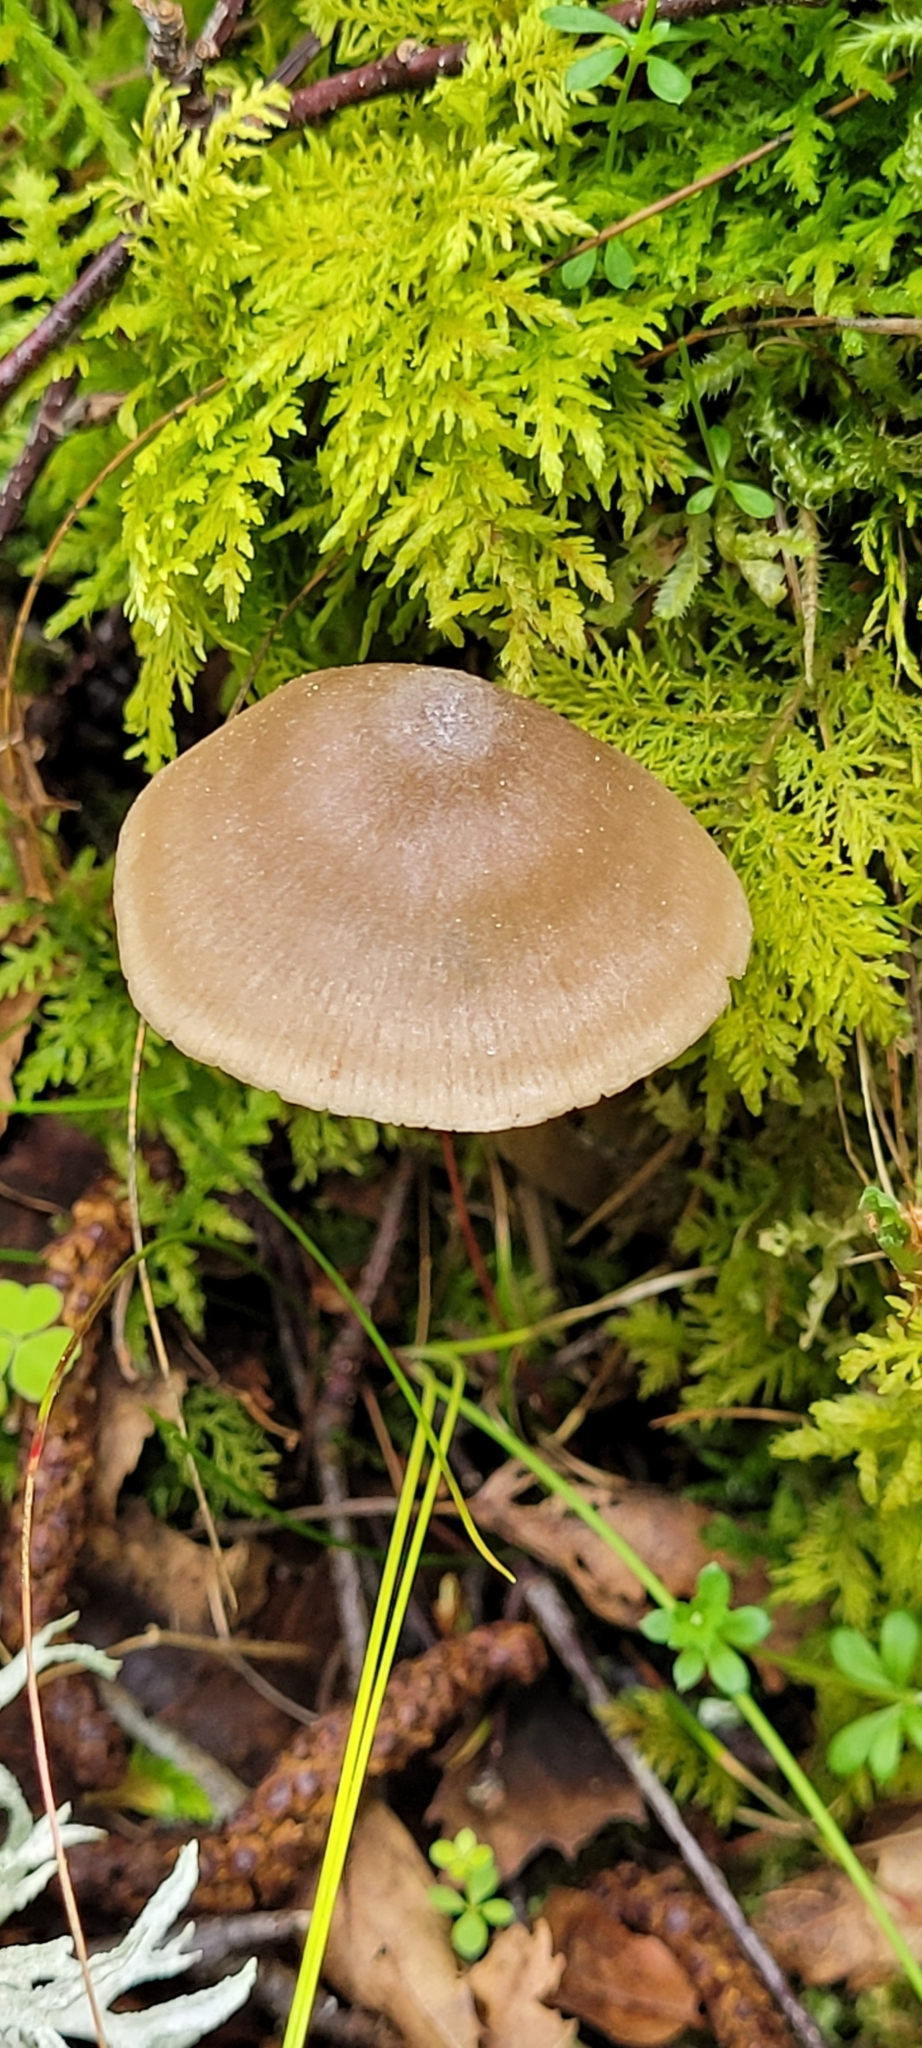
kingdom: Fungi
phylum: Basidiomycota
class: Agaricomycetes
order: Agaricales
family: Entolomataceae
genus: Entoloma
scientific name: Entoloma conferendum
